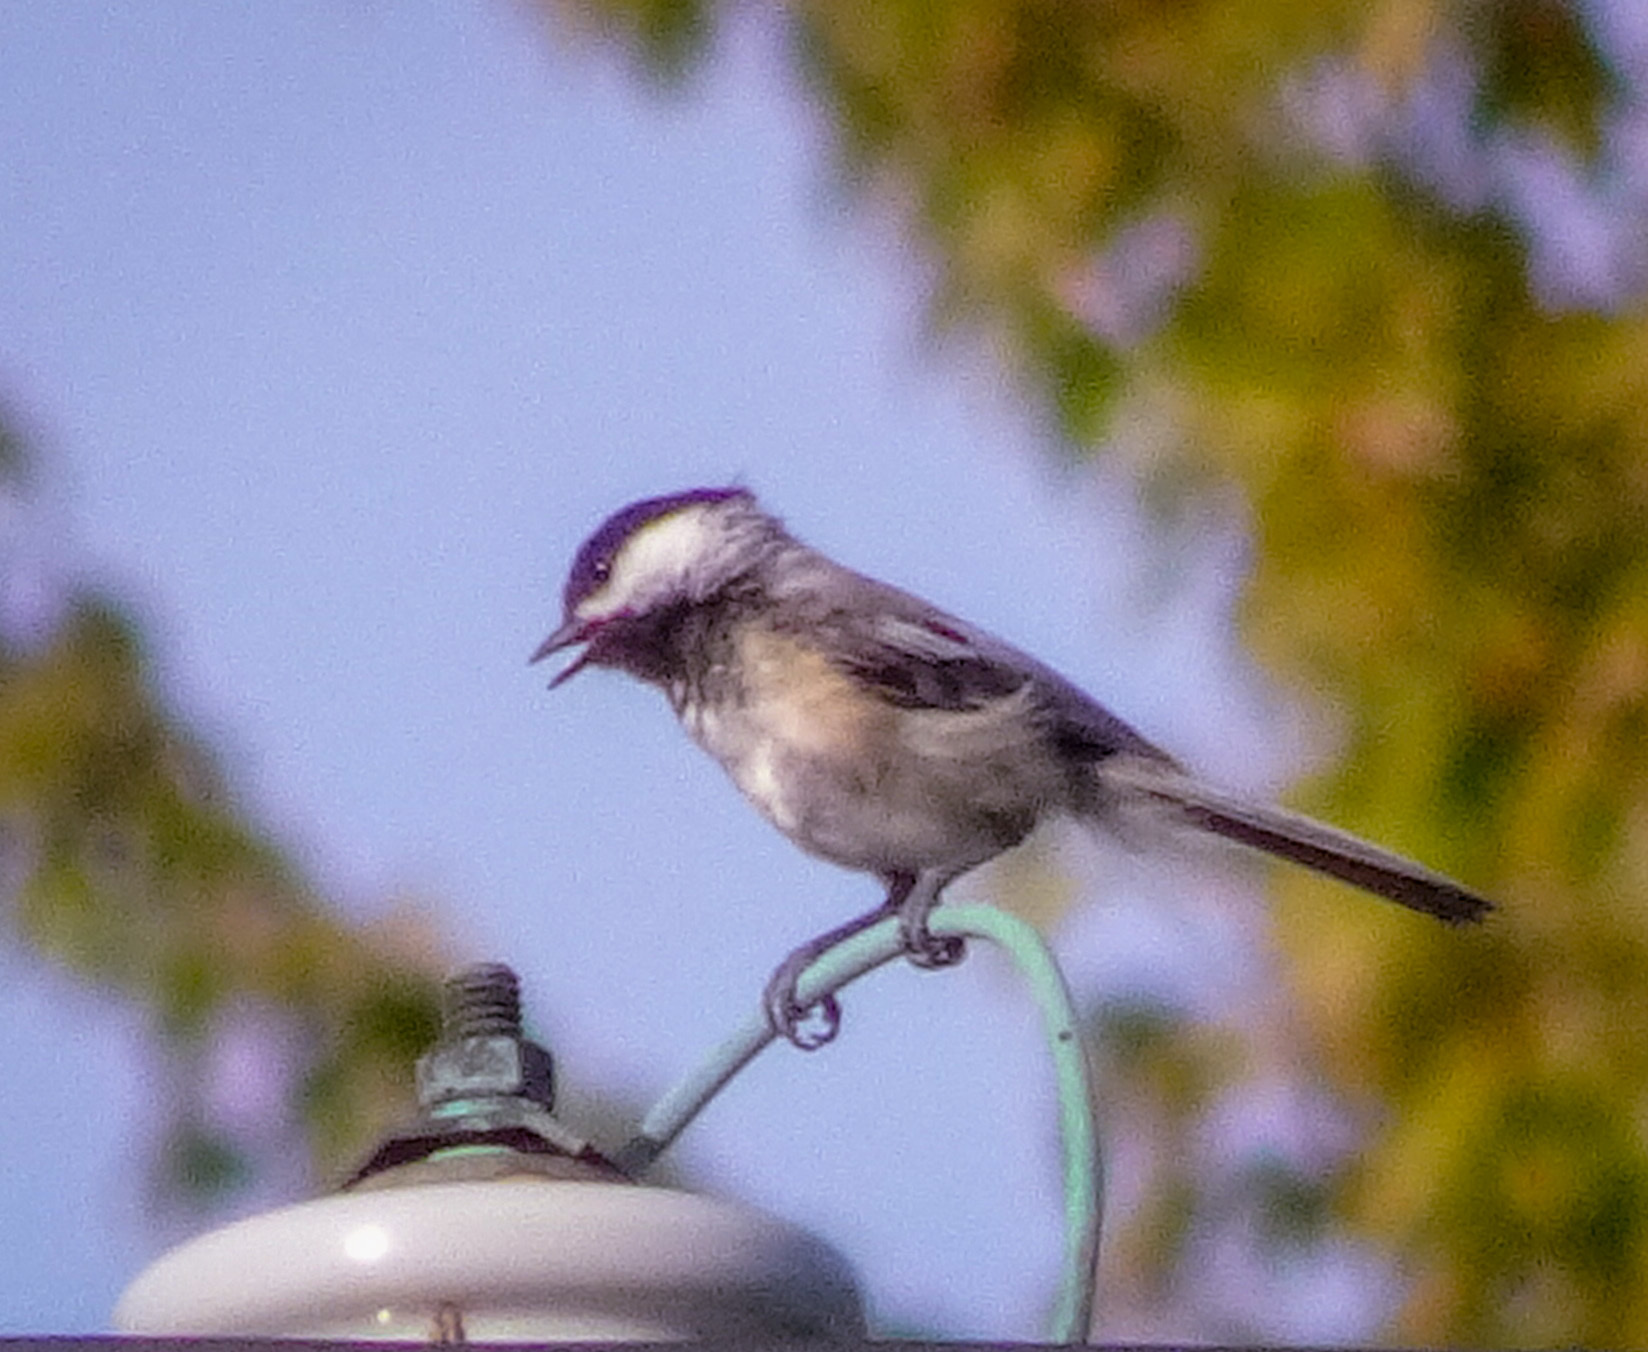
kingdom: Animalia
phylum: Chordata
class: Aves
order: Passeriformes
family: Paridae
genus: Poecile
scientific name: Poecile atricapillus
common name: Black-capped chickadee
